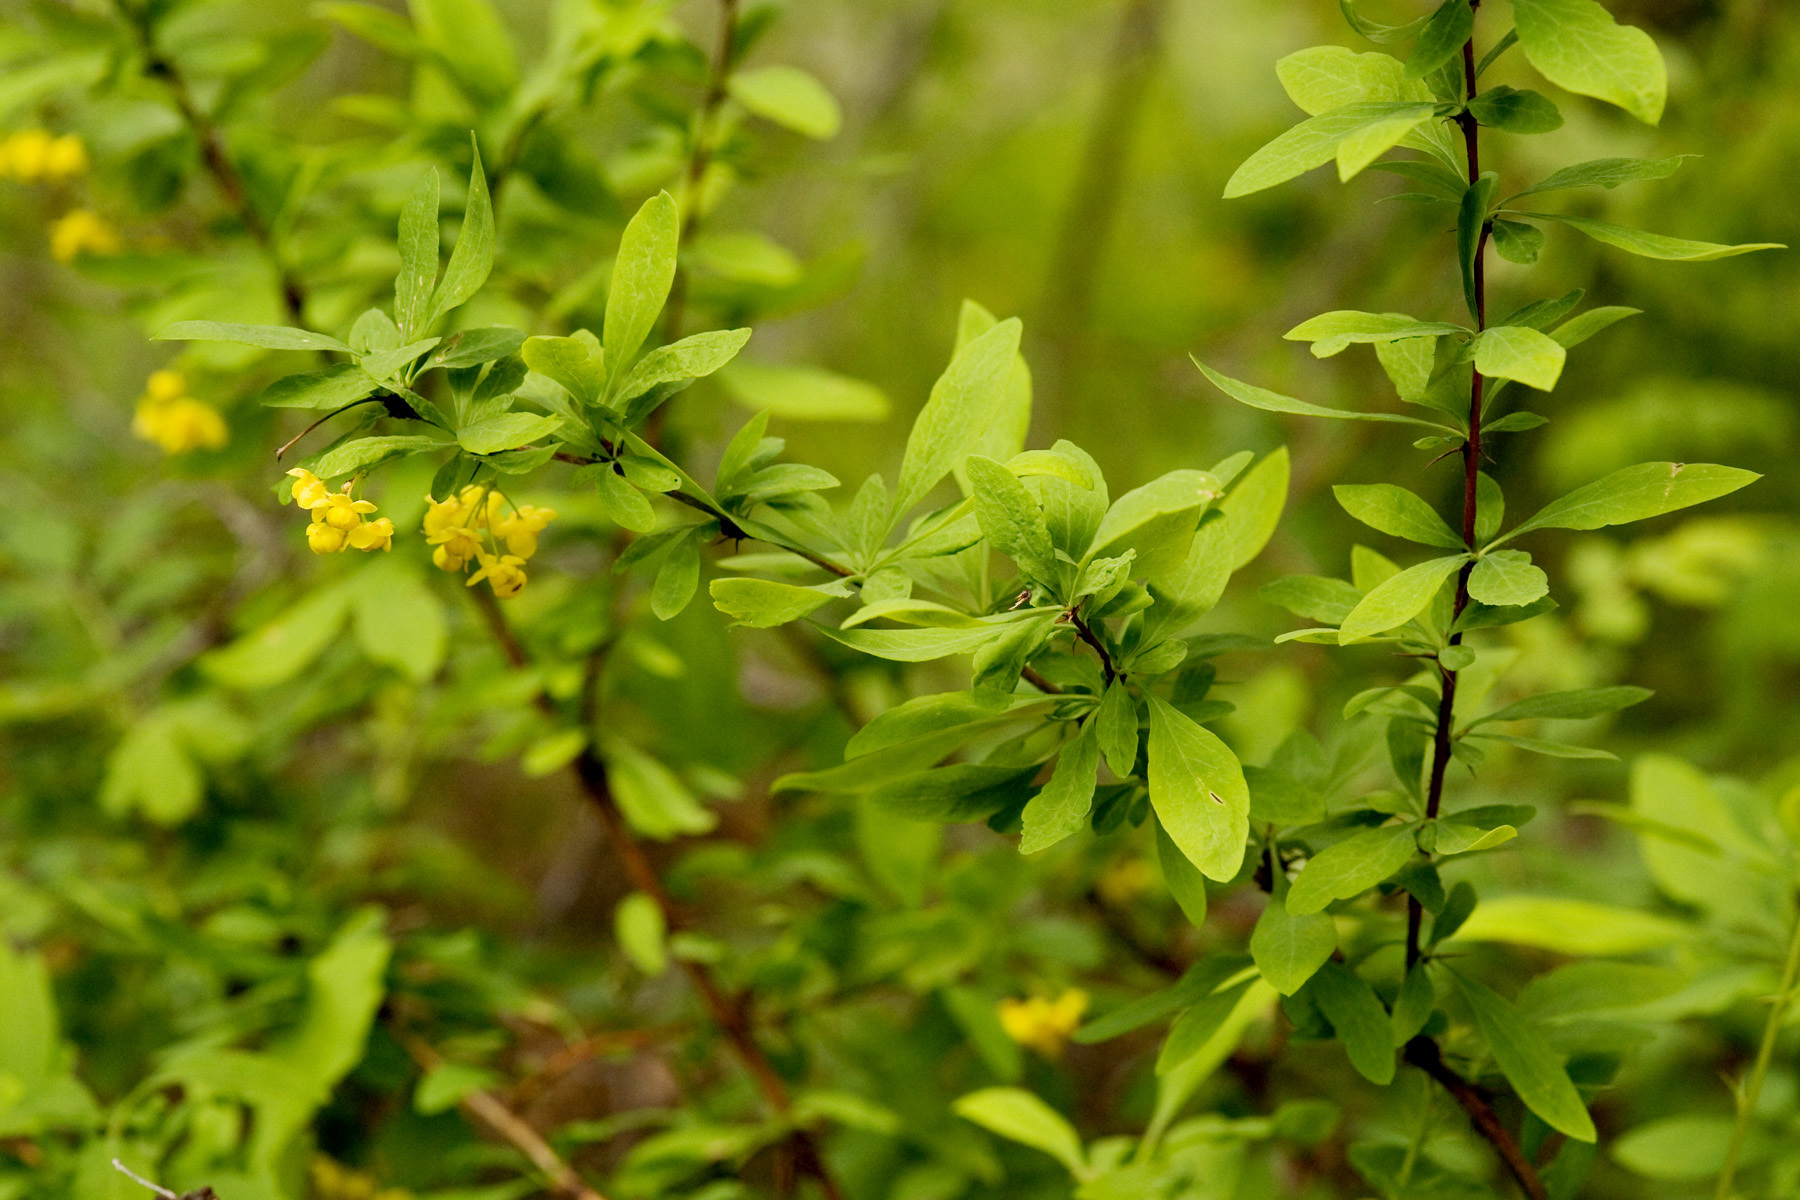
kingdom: Plantae
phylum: Tracheophyta
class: Magnoliopsida
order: Ranunculales
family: Berberidaceae
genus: Berberis
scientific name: Berberis fendleri
